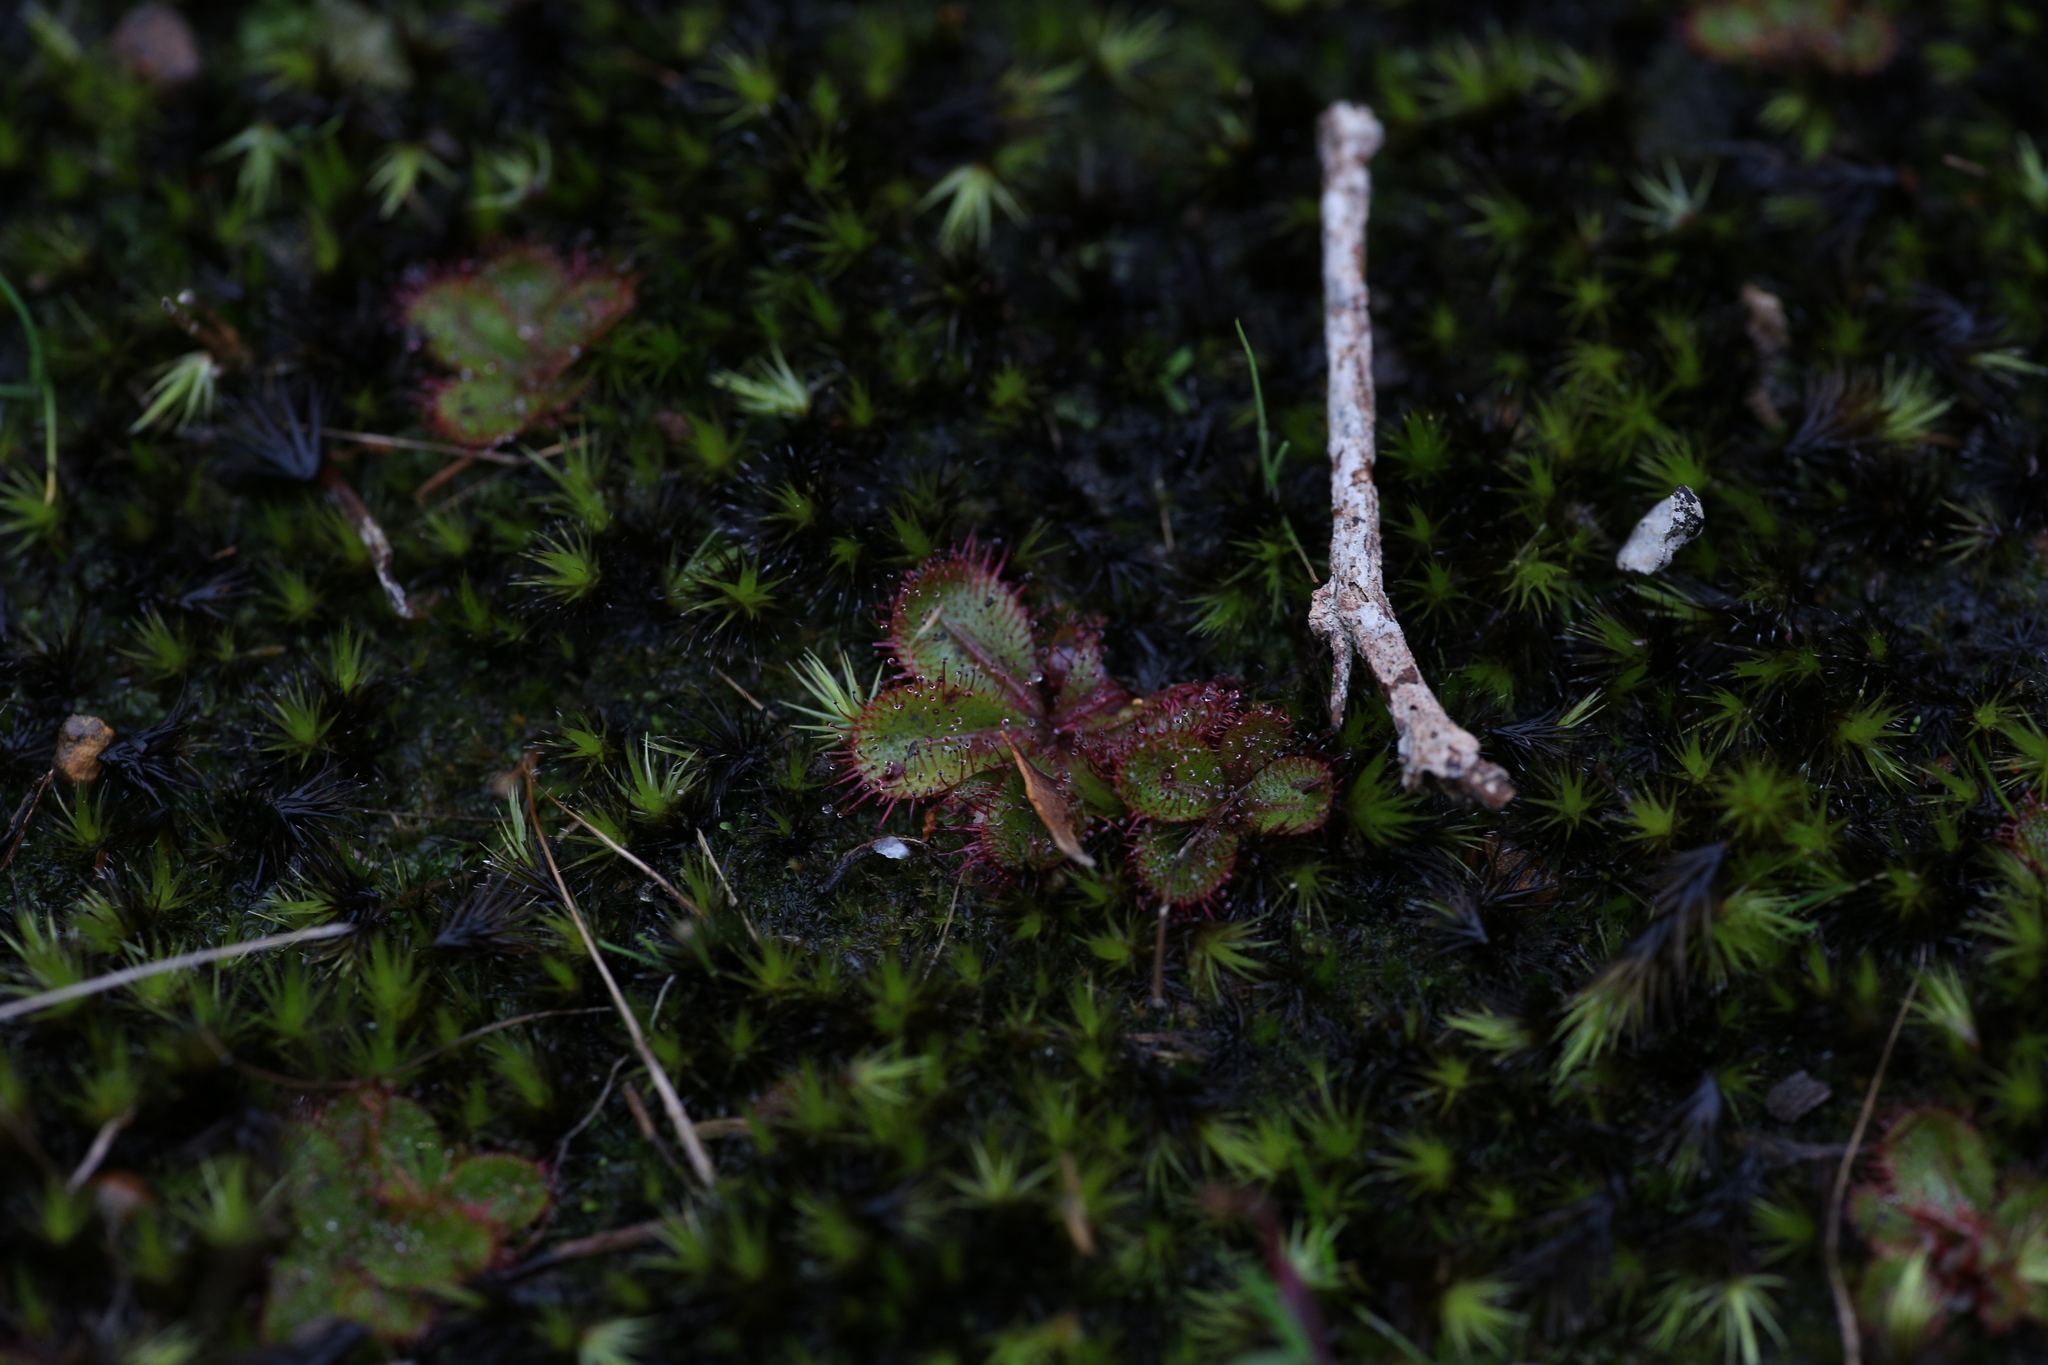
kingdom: Plantae
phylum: Tracheophyta
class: Magnoliopsida
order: Caryophyllales
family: Droseraceae
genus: Drosera
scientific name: Drosera tubaestylis
